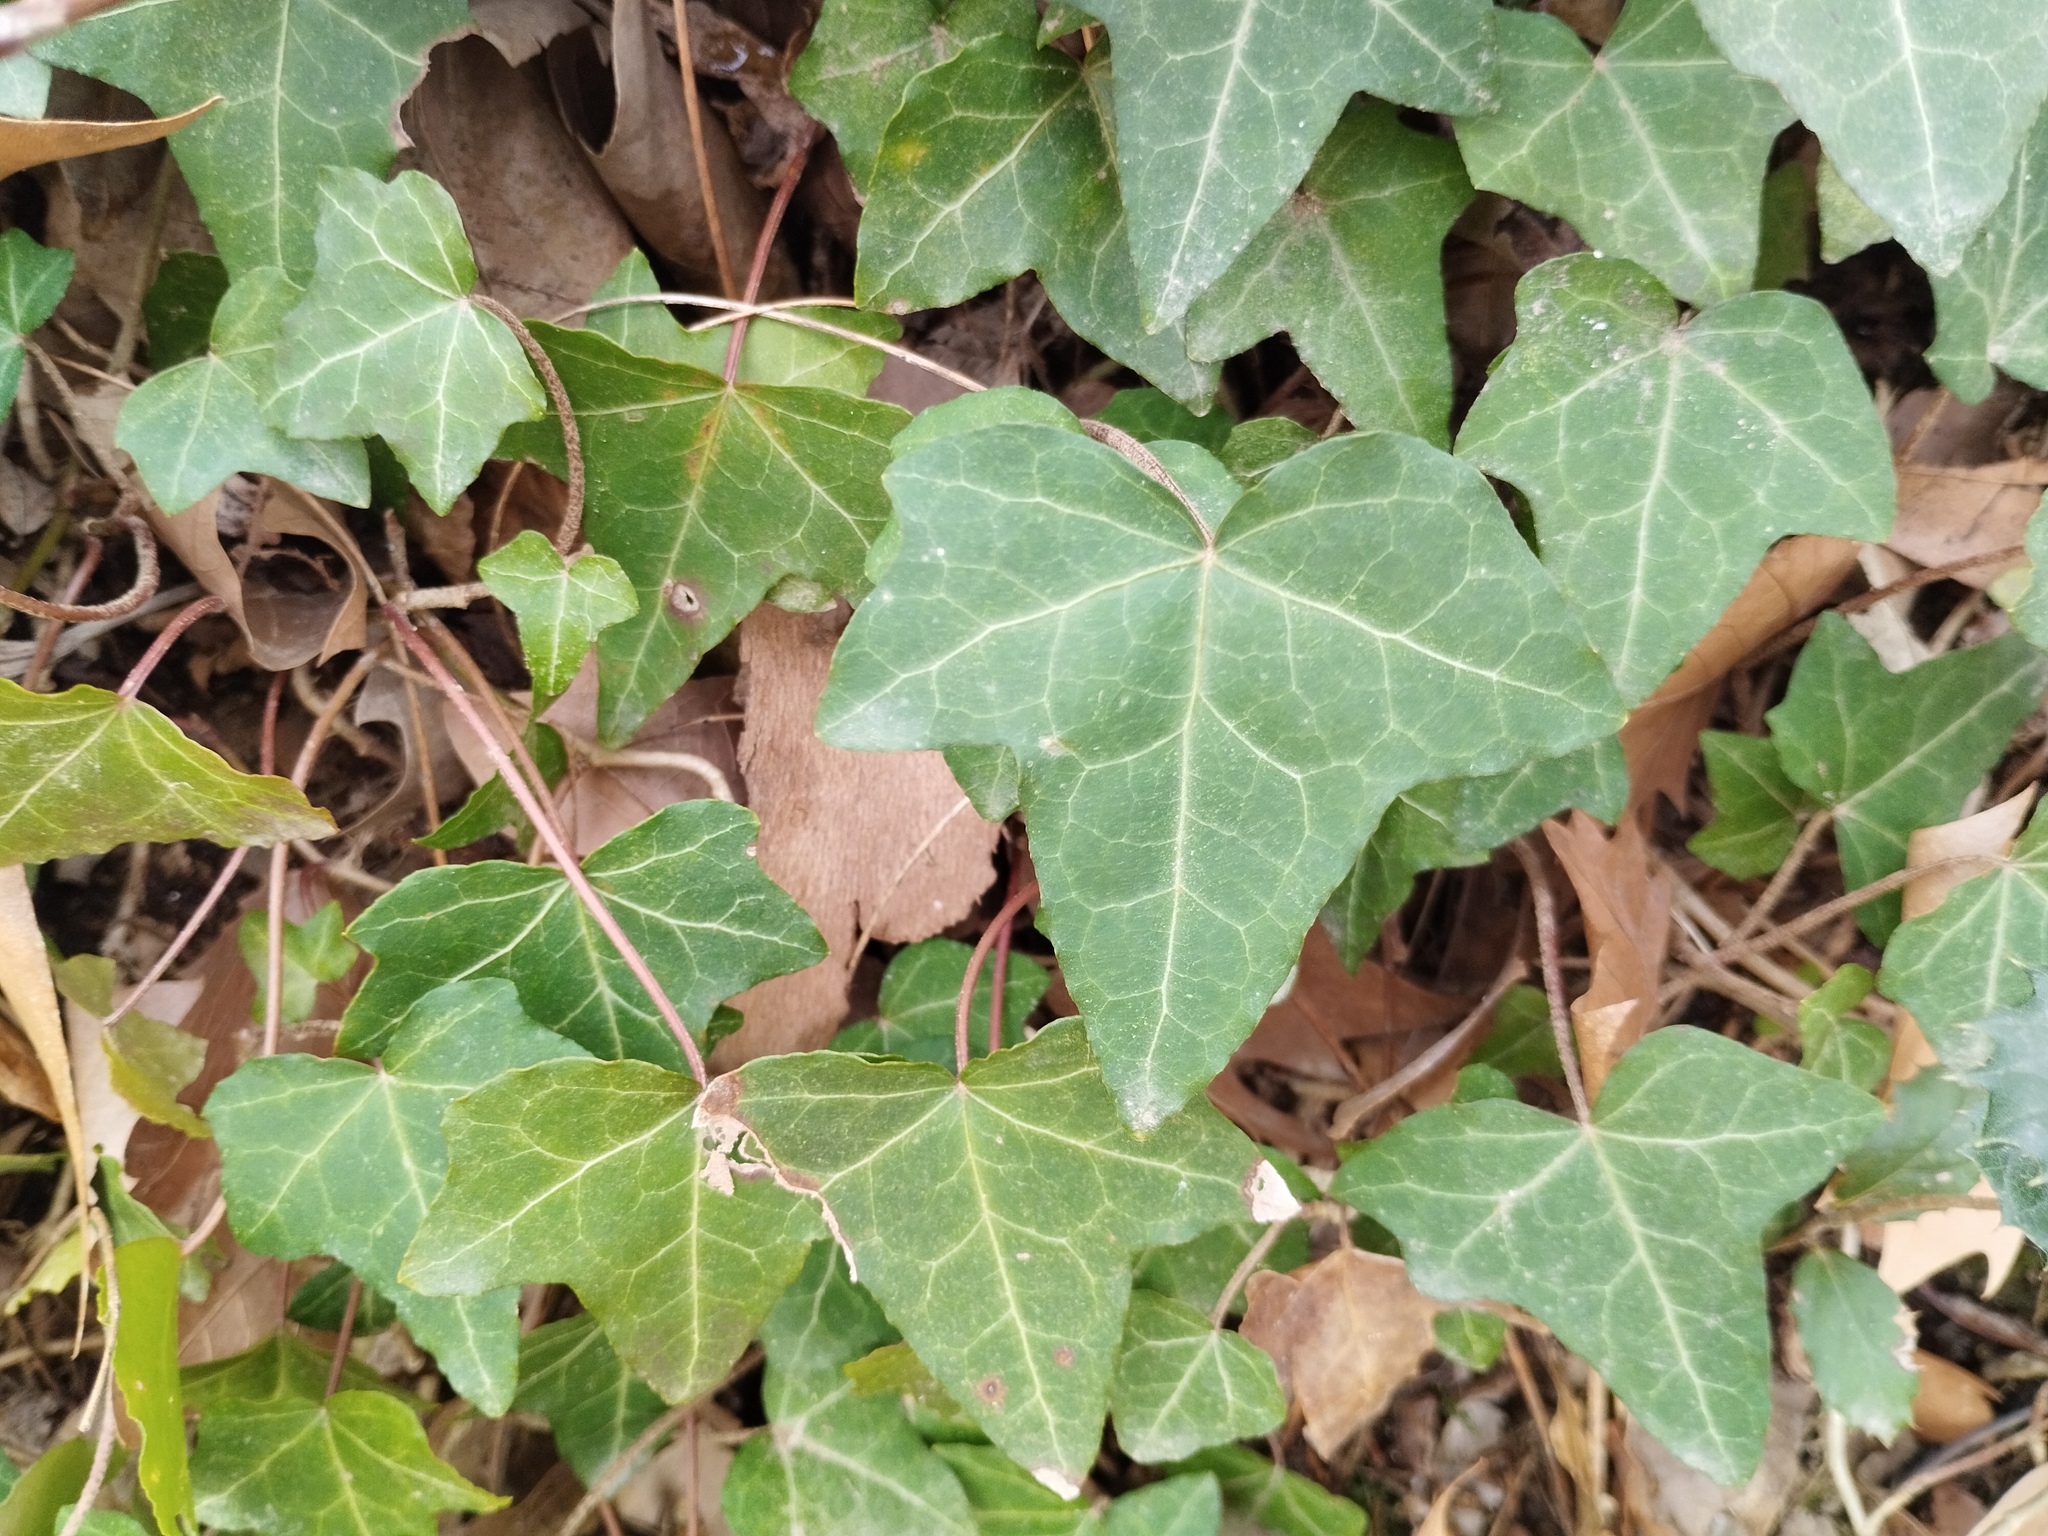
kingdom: Plantae
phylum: Tracheophyta
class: Magnoliopsida
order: Apiales
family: Araliaceae
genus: Hedera
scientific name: Hedera helix
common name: Ivy
